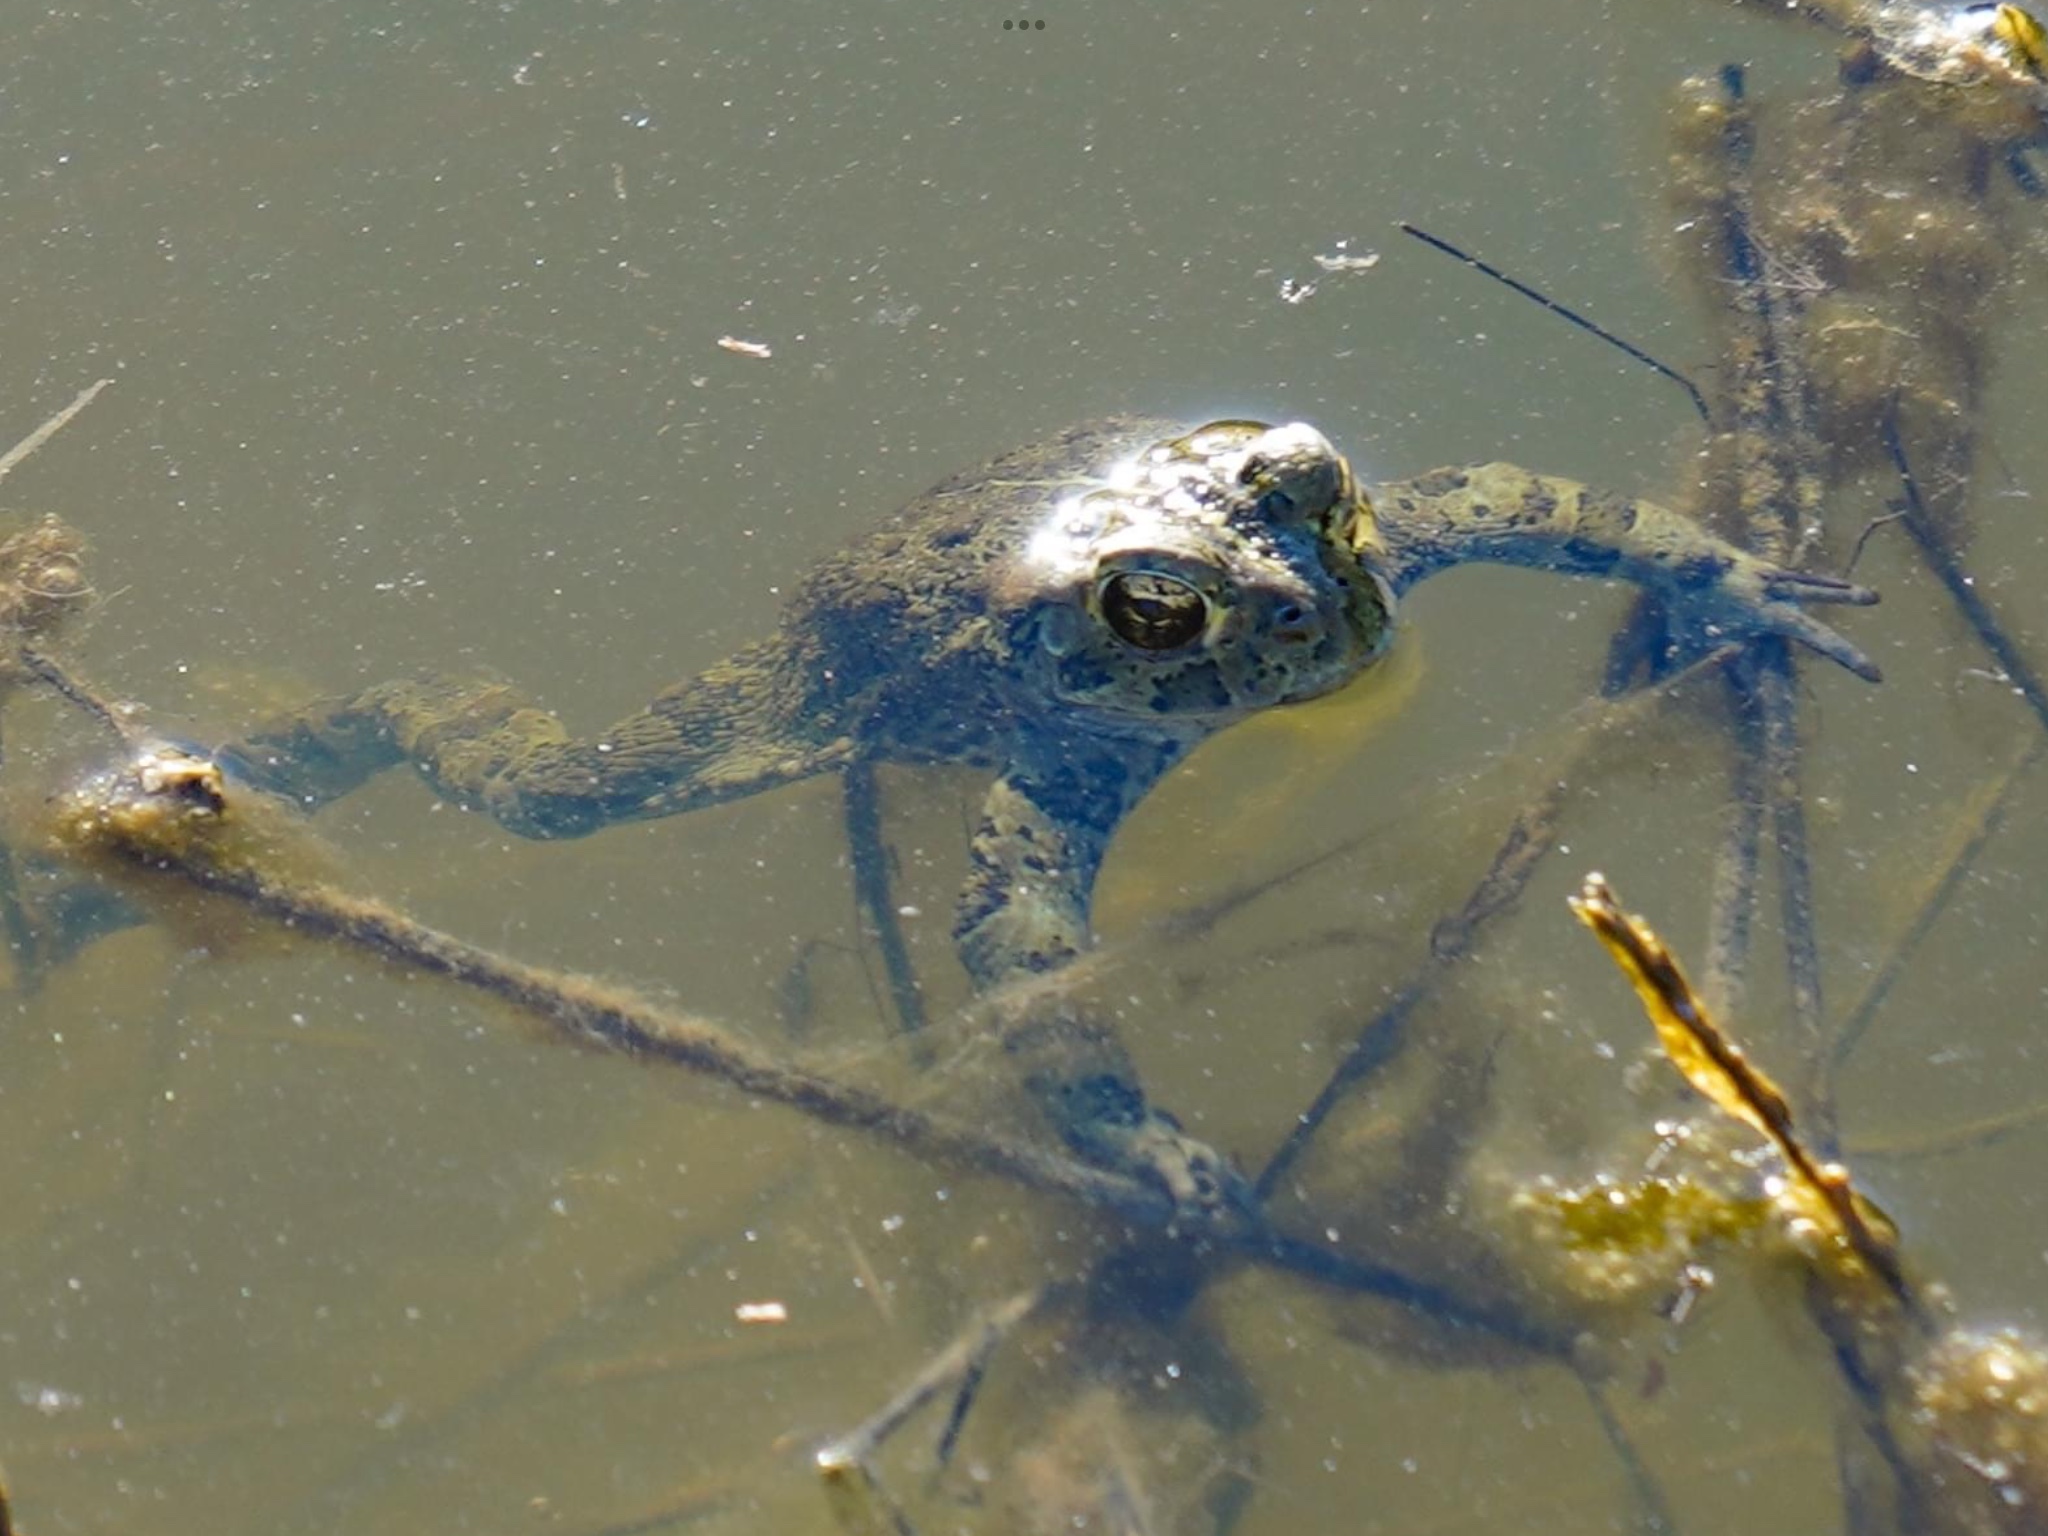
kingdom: Animalia
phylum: Chordata
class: Amphibia
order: Anura
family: Bufonidae
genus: Anaxyrus
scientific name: Anaxyrus boreas
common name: Western toad
